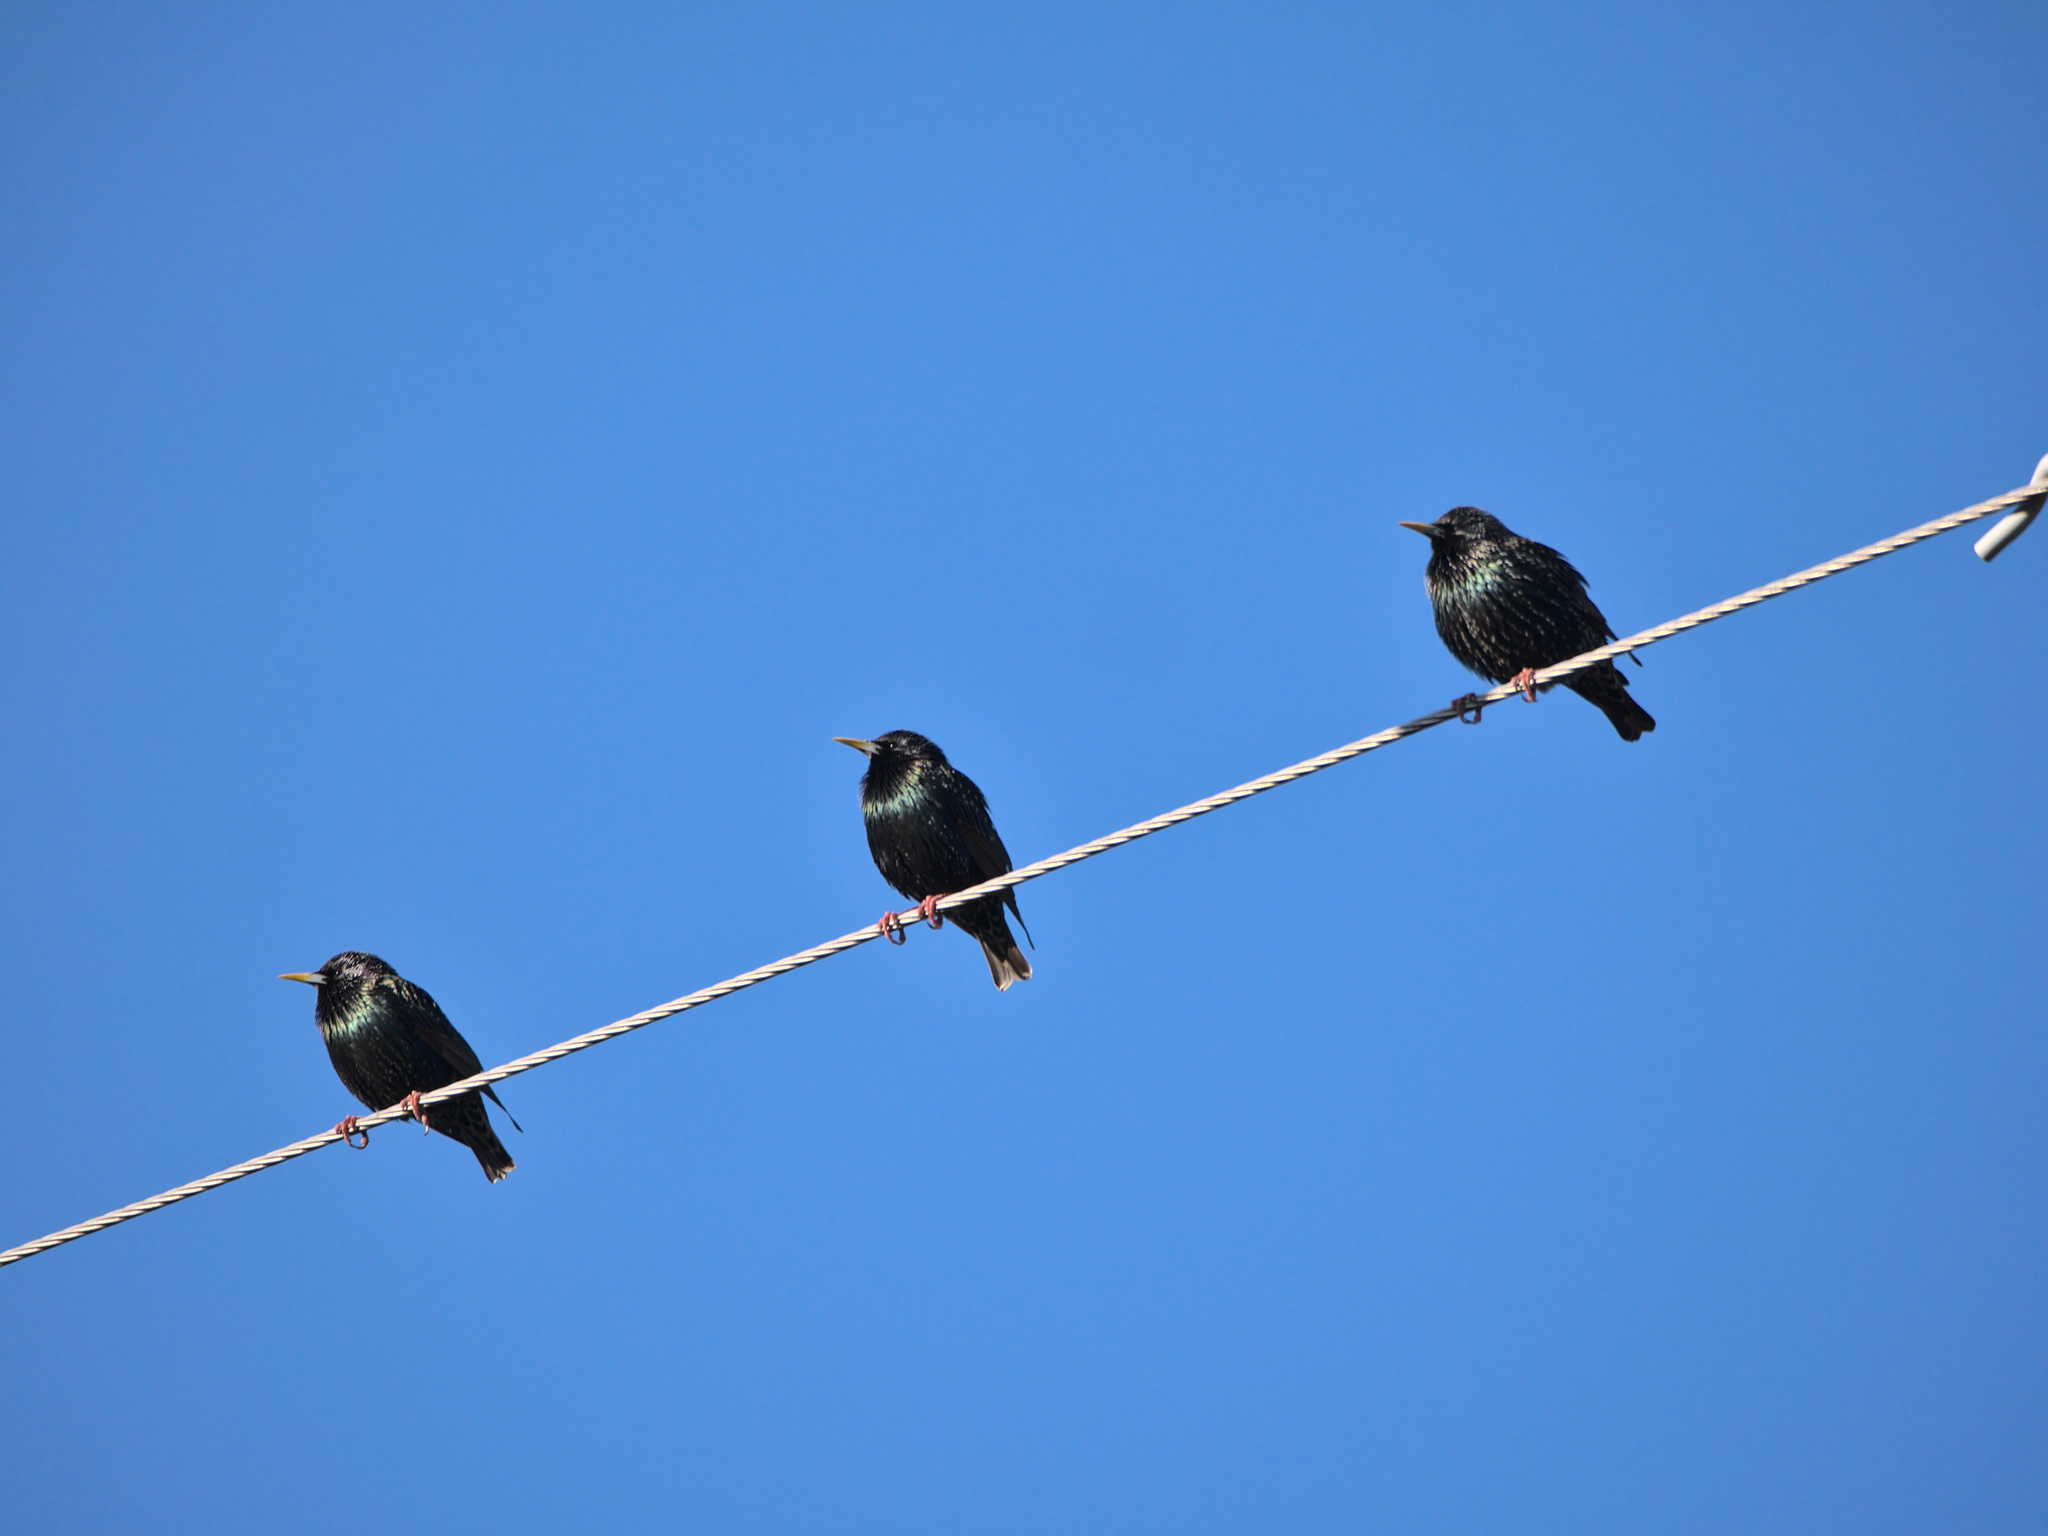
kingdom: Animalia
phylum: Chordata
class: Aves
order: Passeriformes
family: Sturnidae
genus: Sturnus
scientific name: Sturnus vulgaris
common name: Common starling
